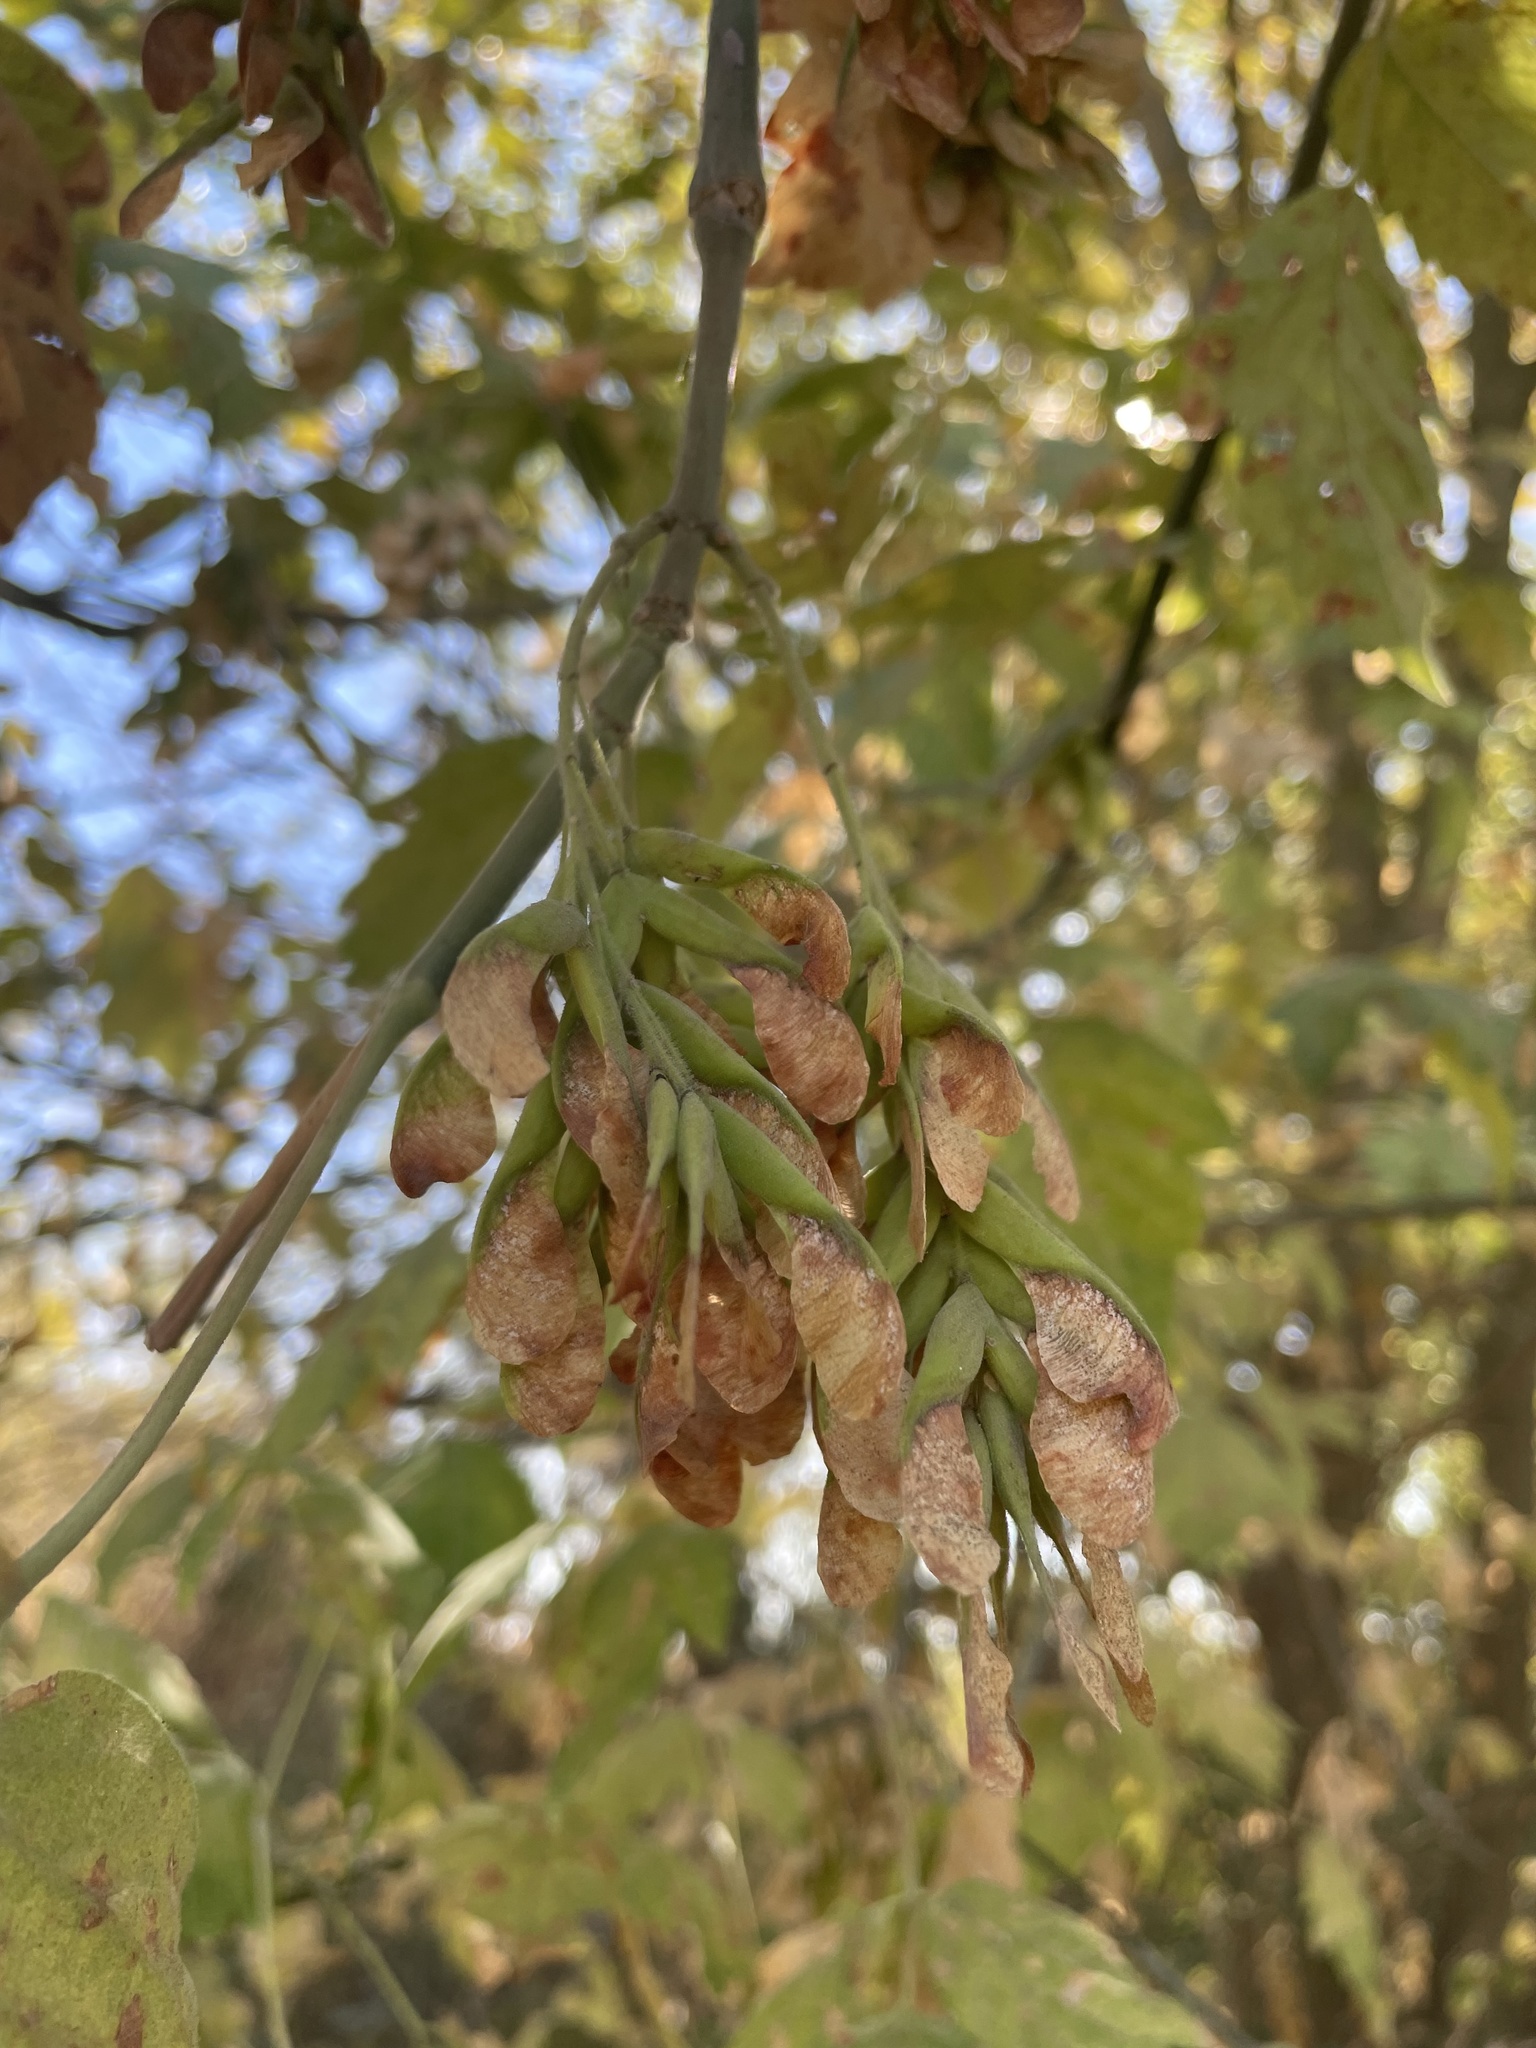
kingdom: Plantae
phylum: Tracheophyta
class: Magnoliopsida
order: Sapindales
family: Sapindaceae
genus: Acer
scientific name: Acer negundo
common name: Ashleaf maple
